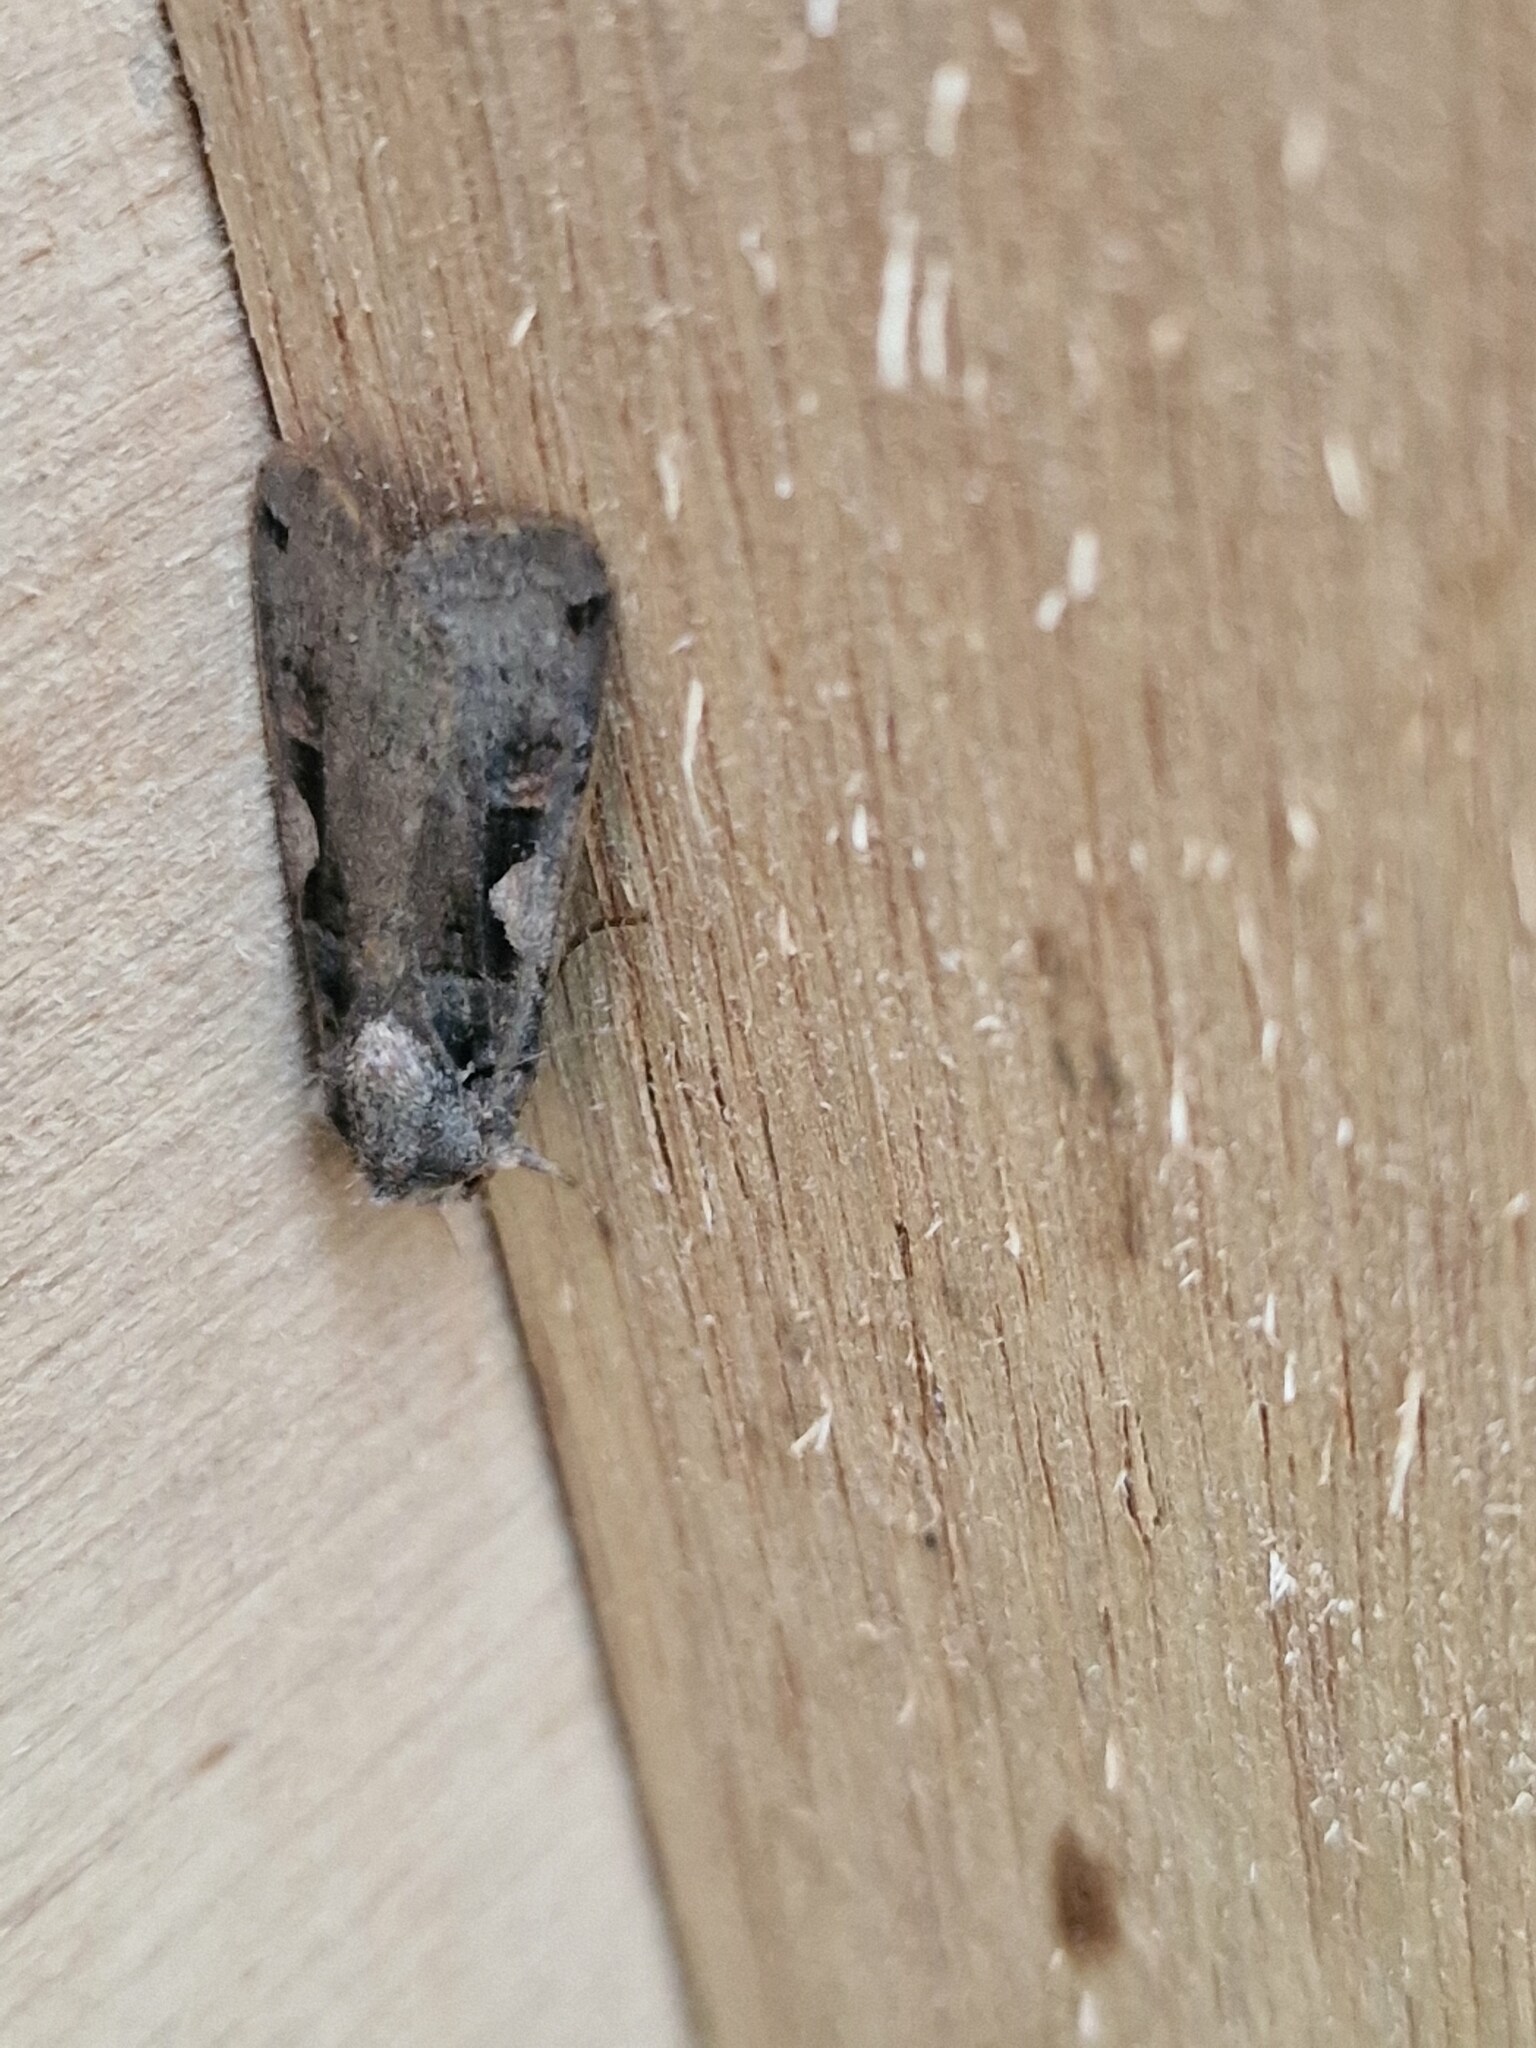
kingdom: Animalia
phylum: Arthropoda
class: Insecta
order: Lepidoptera
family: Noctuidae
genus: Xestia
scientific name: Xestia c-nigrum
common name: Setaceous hebrew character
